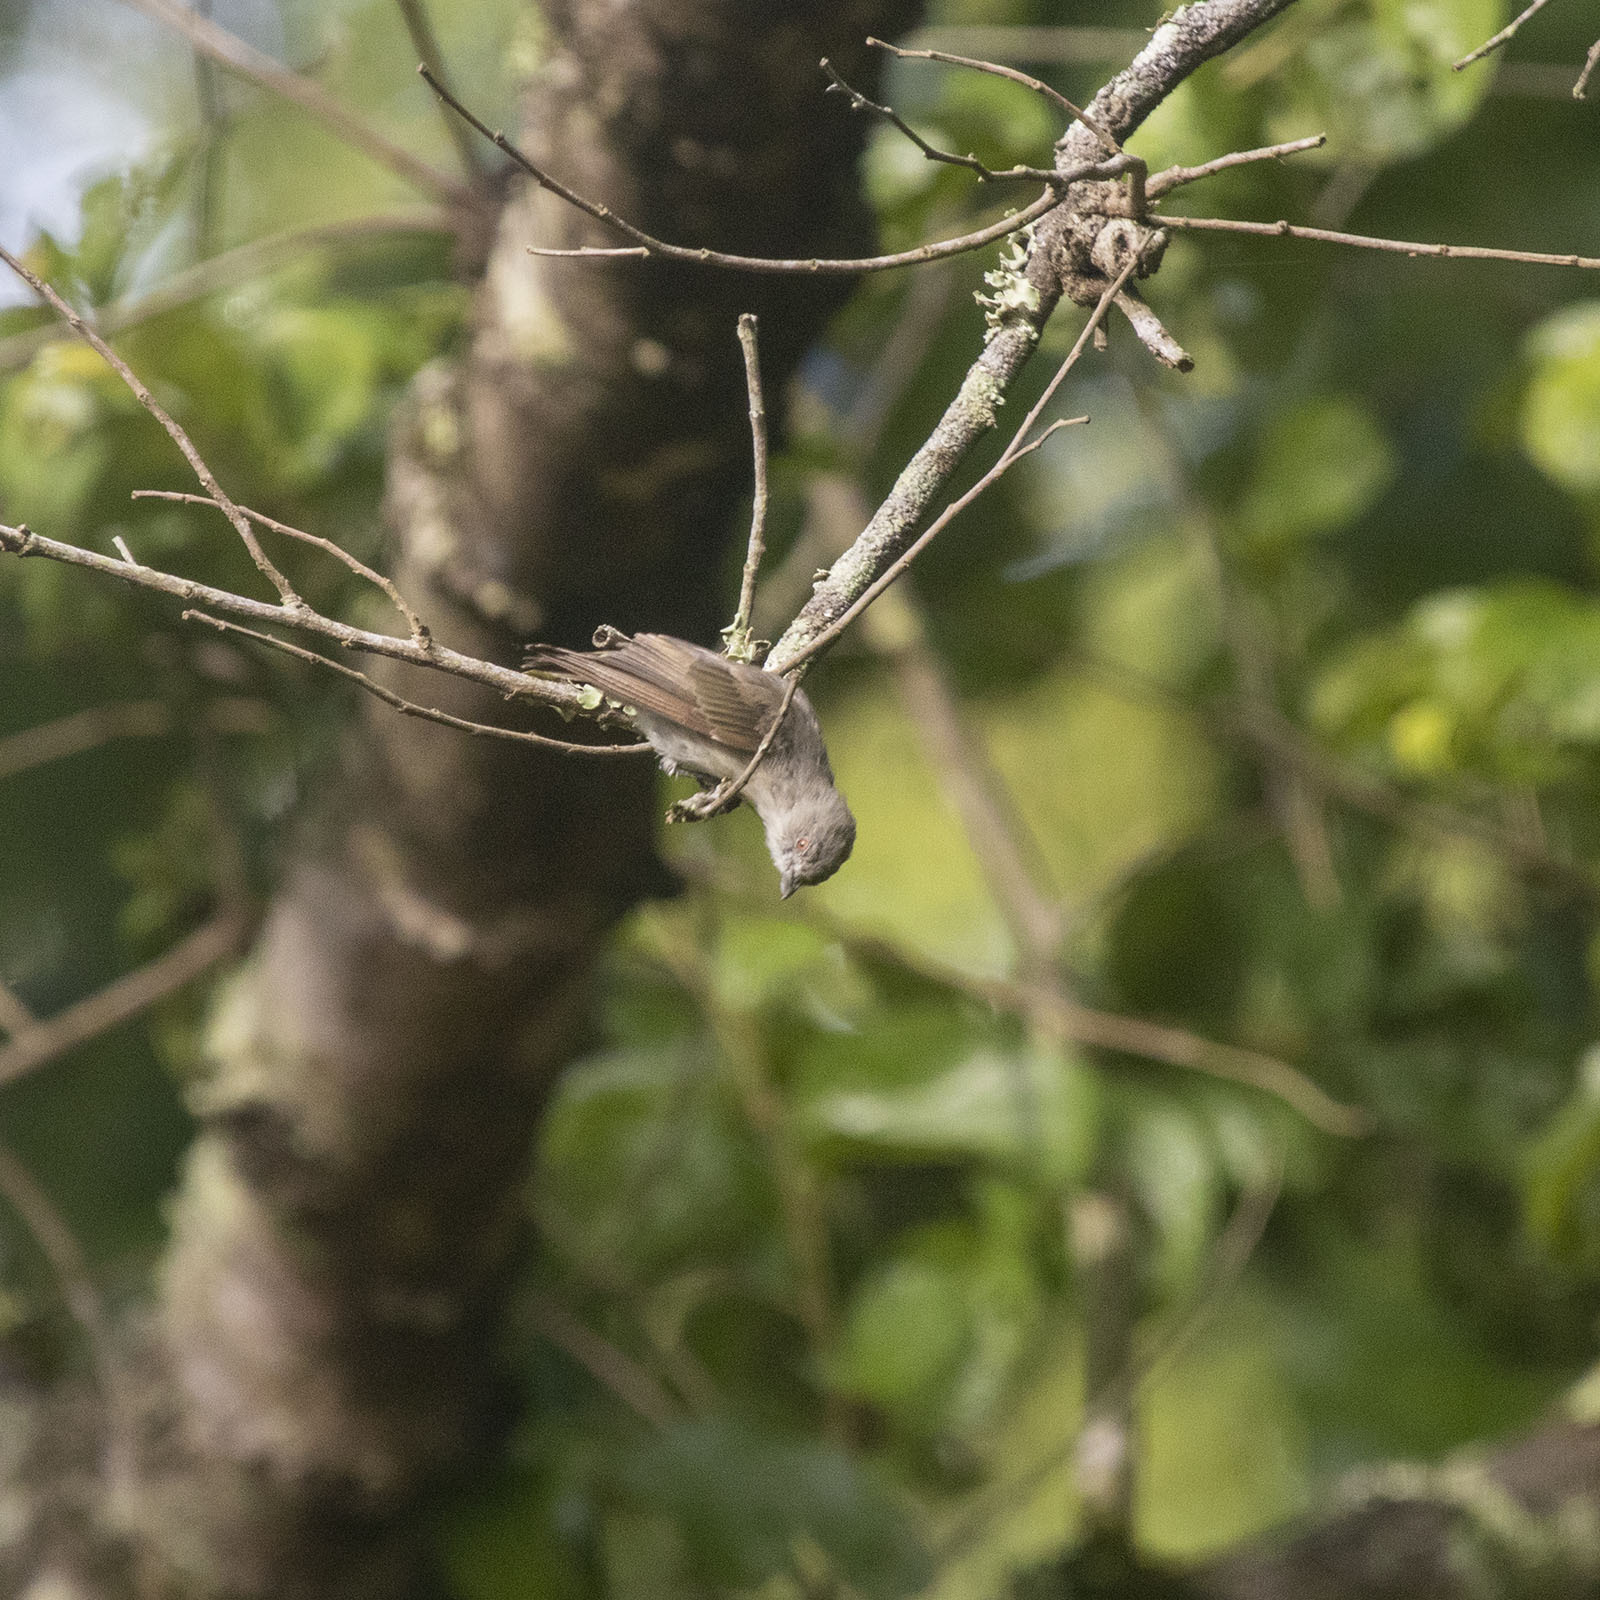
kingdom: Animalia
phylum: Chordata
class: Aves
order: Passeriformes
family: Dicaeidae
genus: Dicaeum
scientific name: Dicaeum agile
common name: Thick-billed flowerpecker
